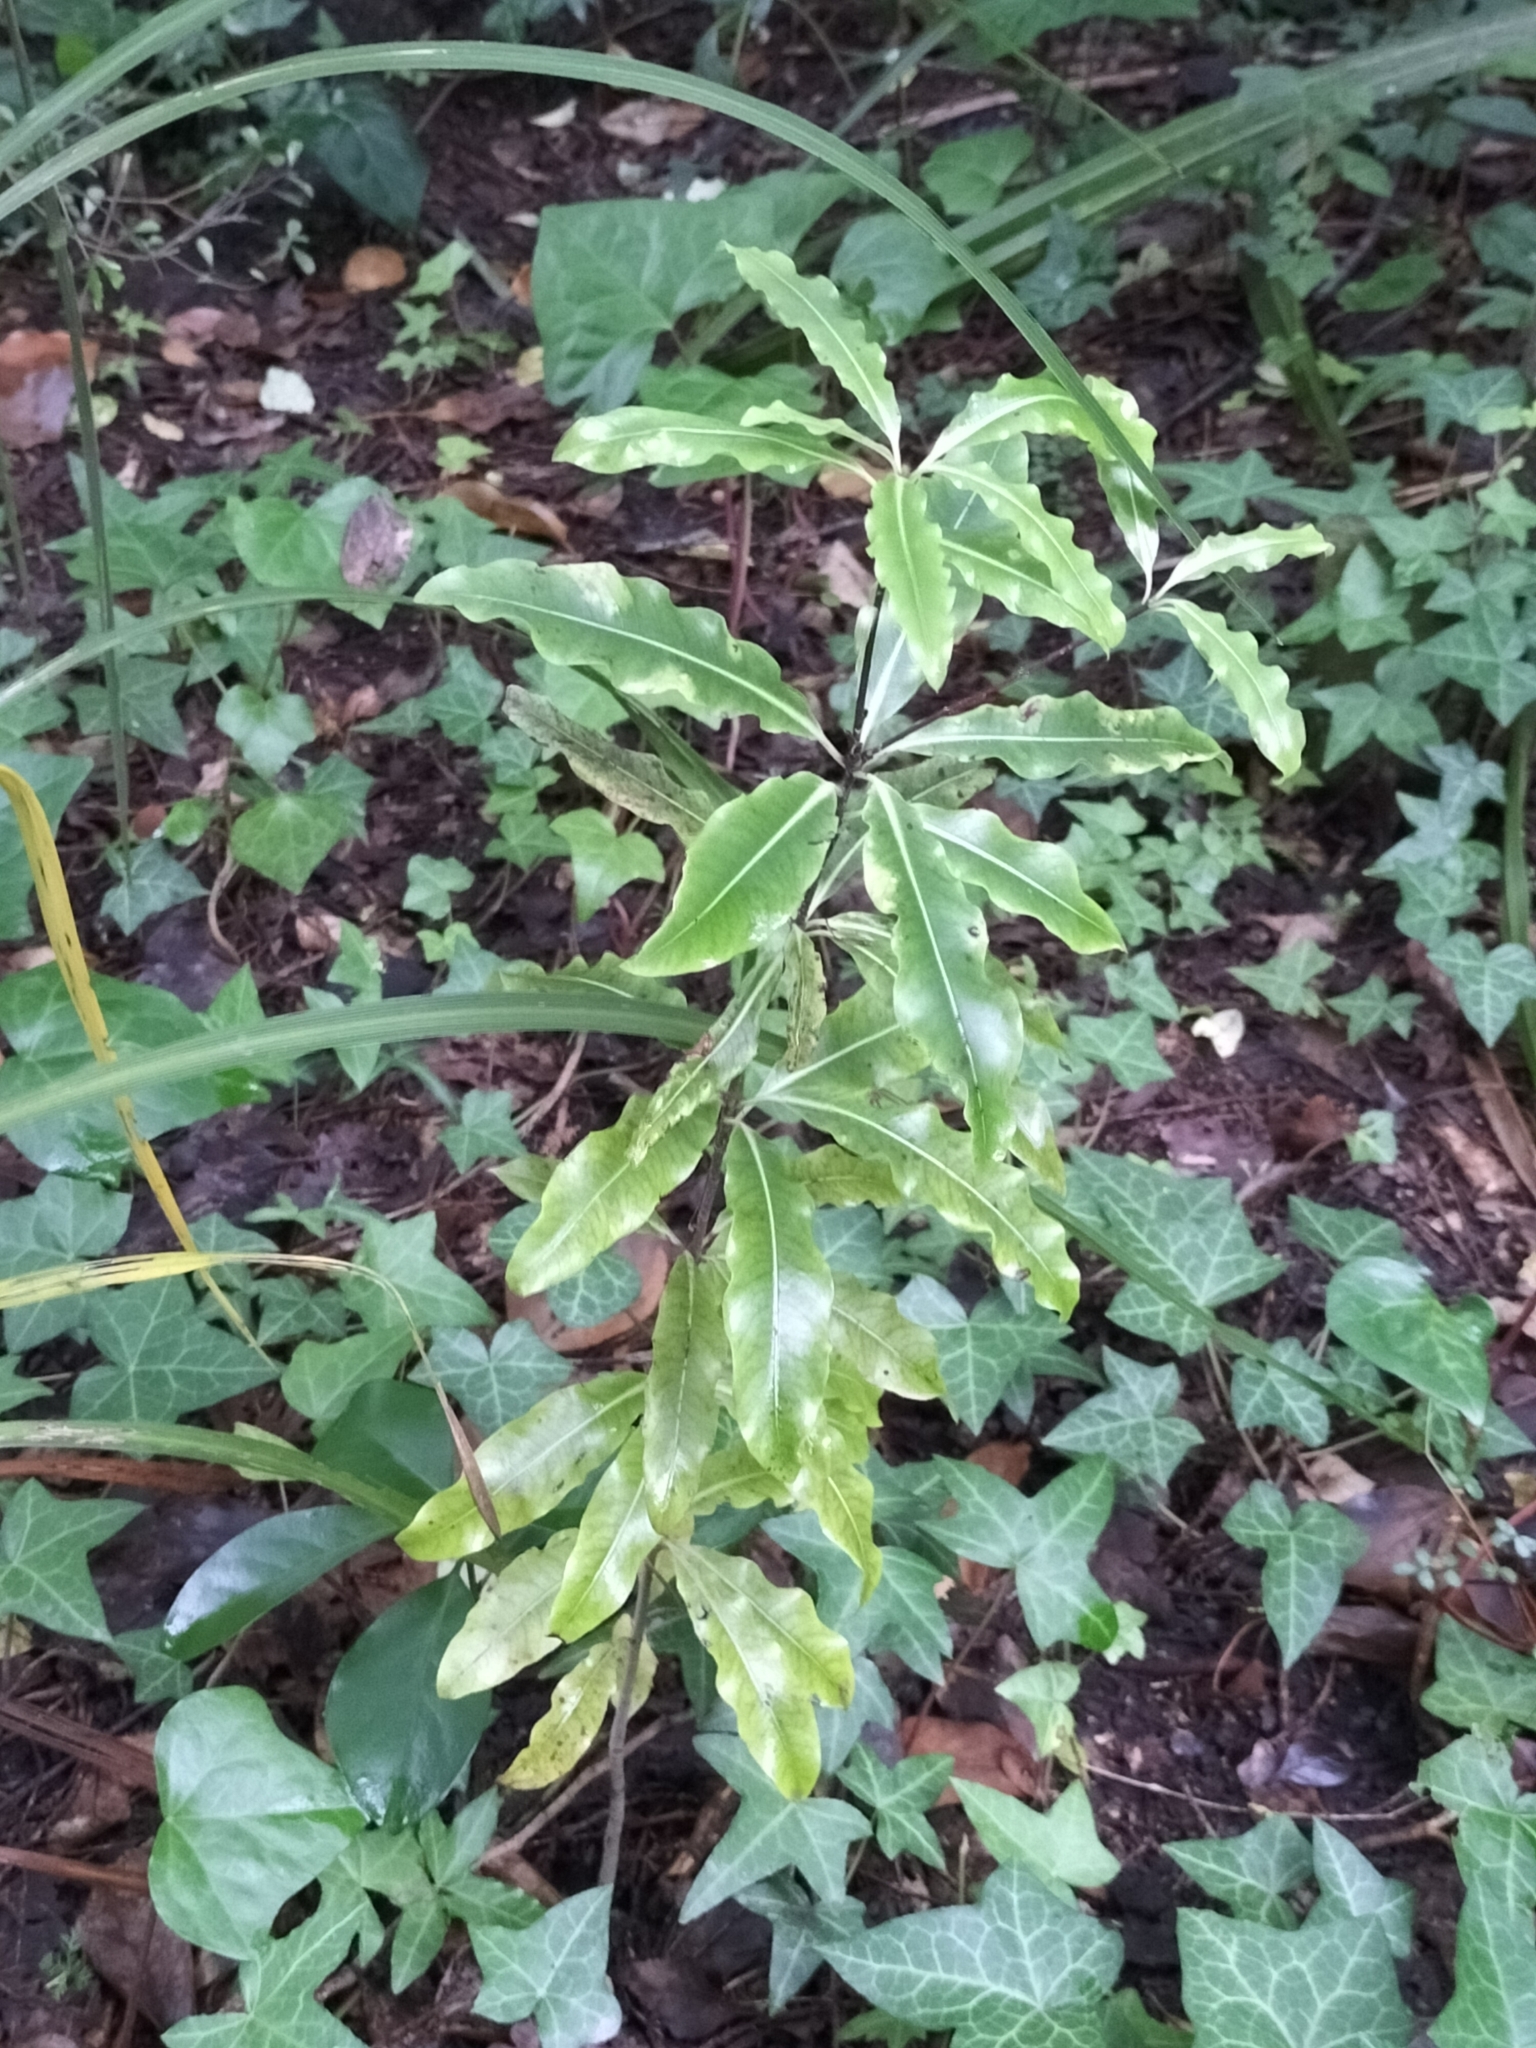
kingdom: Plantae
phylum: Tracheophyta
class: Magnoliopsida
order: Apiales
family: Pittosporaceae
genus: Pittosporum
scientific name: Pittosporum eugenioides
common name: Lemonwood
